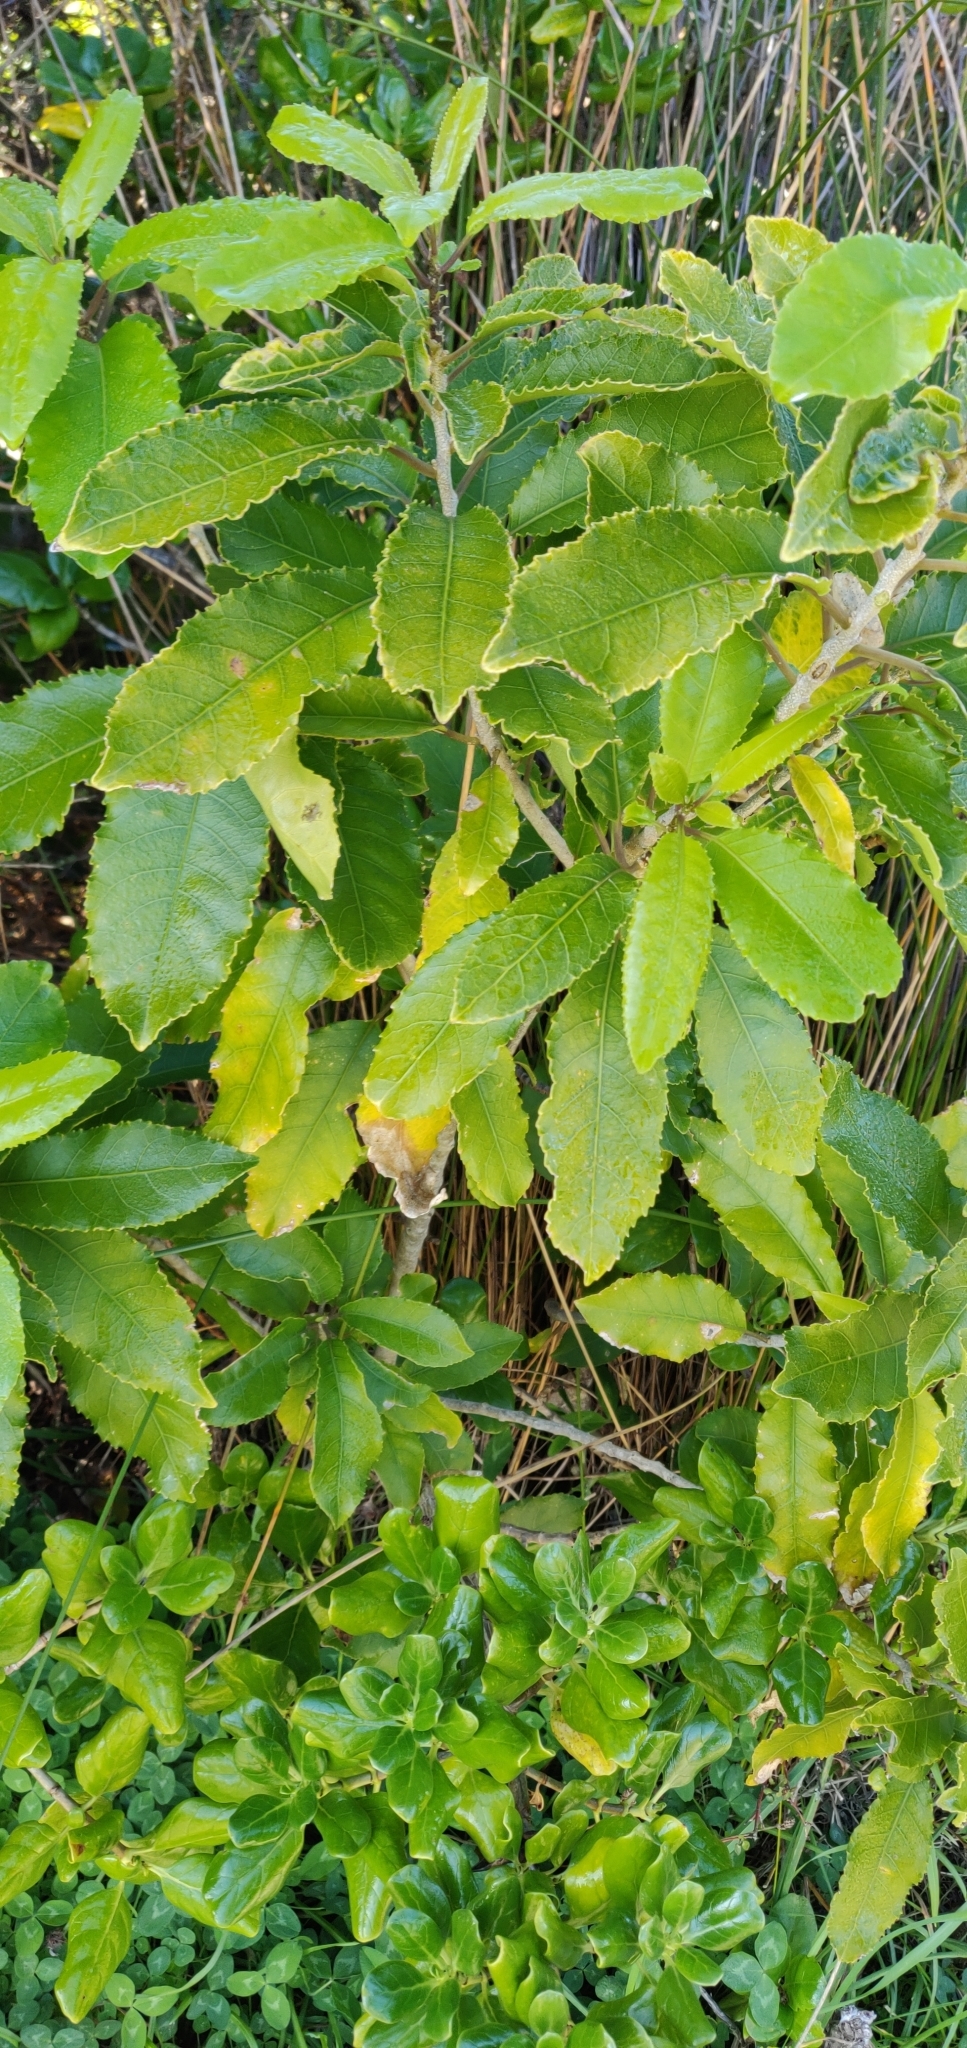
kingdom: Plantae
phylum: Tracheophyta
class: Magnoliopsida
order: Malpighiales
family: Violaceae
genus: Melicytus
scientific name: Melicytus ramiflorus
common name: Mahoe
